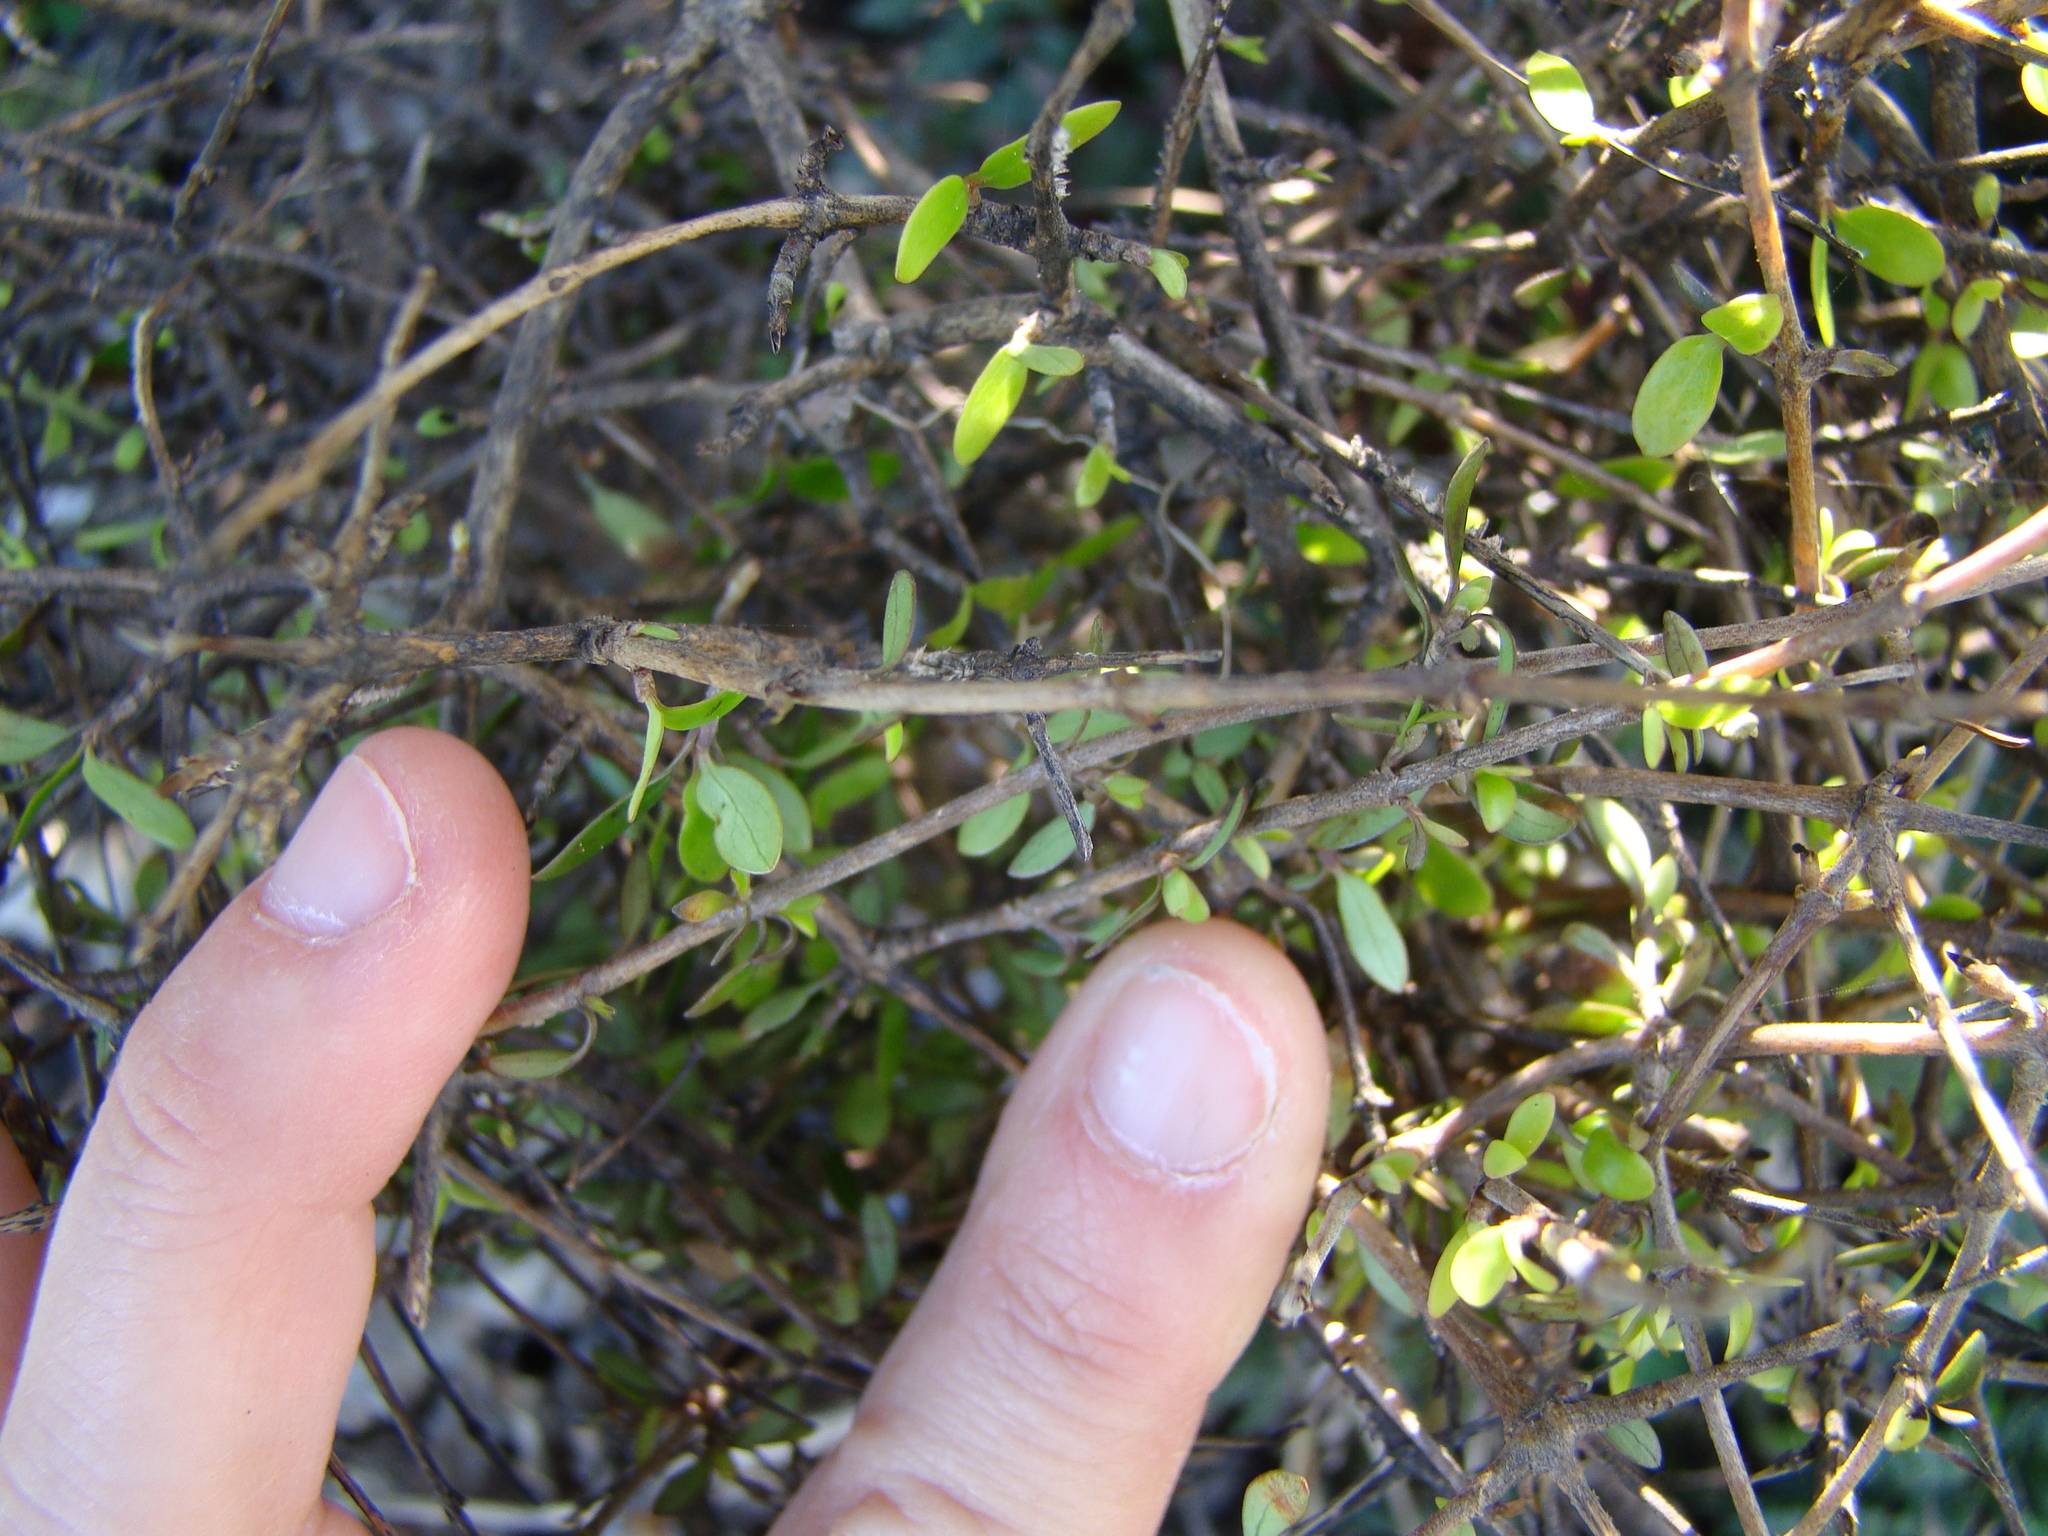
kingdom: Plantae
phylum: Tracheophyta
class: Magnoliopsida
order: Gentianales
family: Rubiaceae
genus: Coprosma
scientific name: Coprosma propinqua
